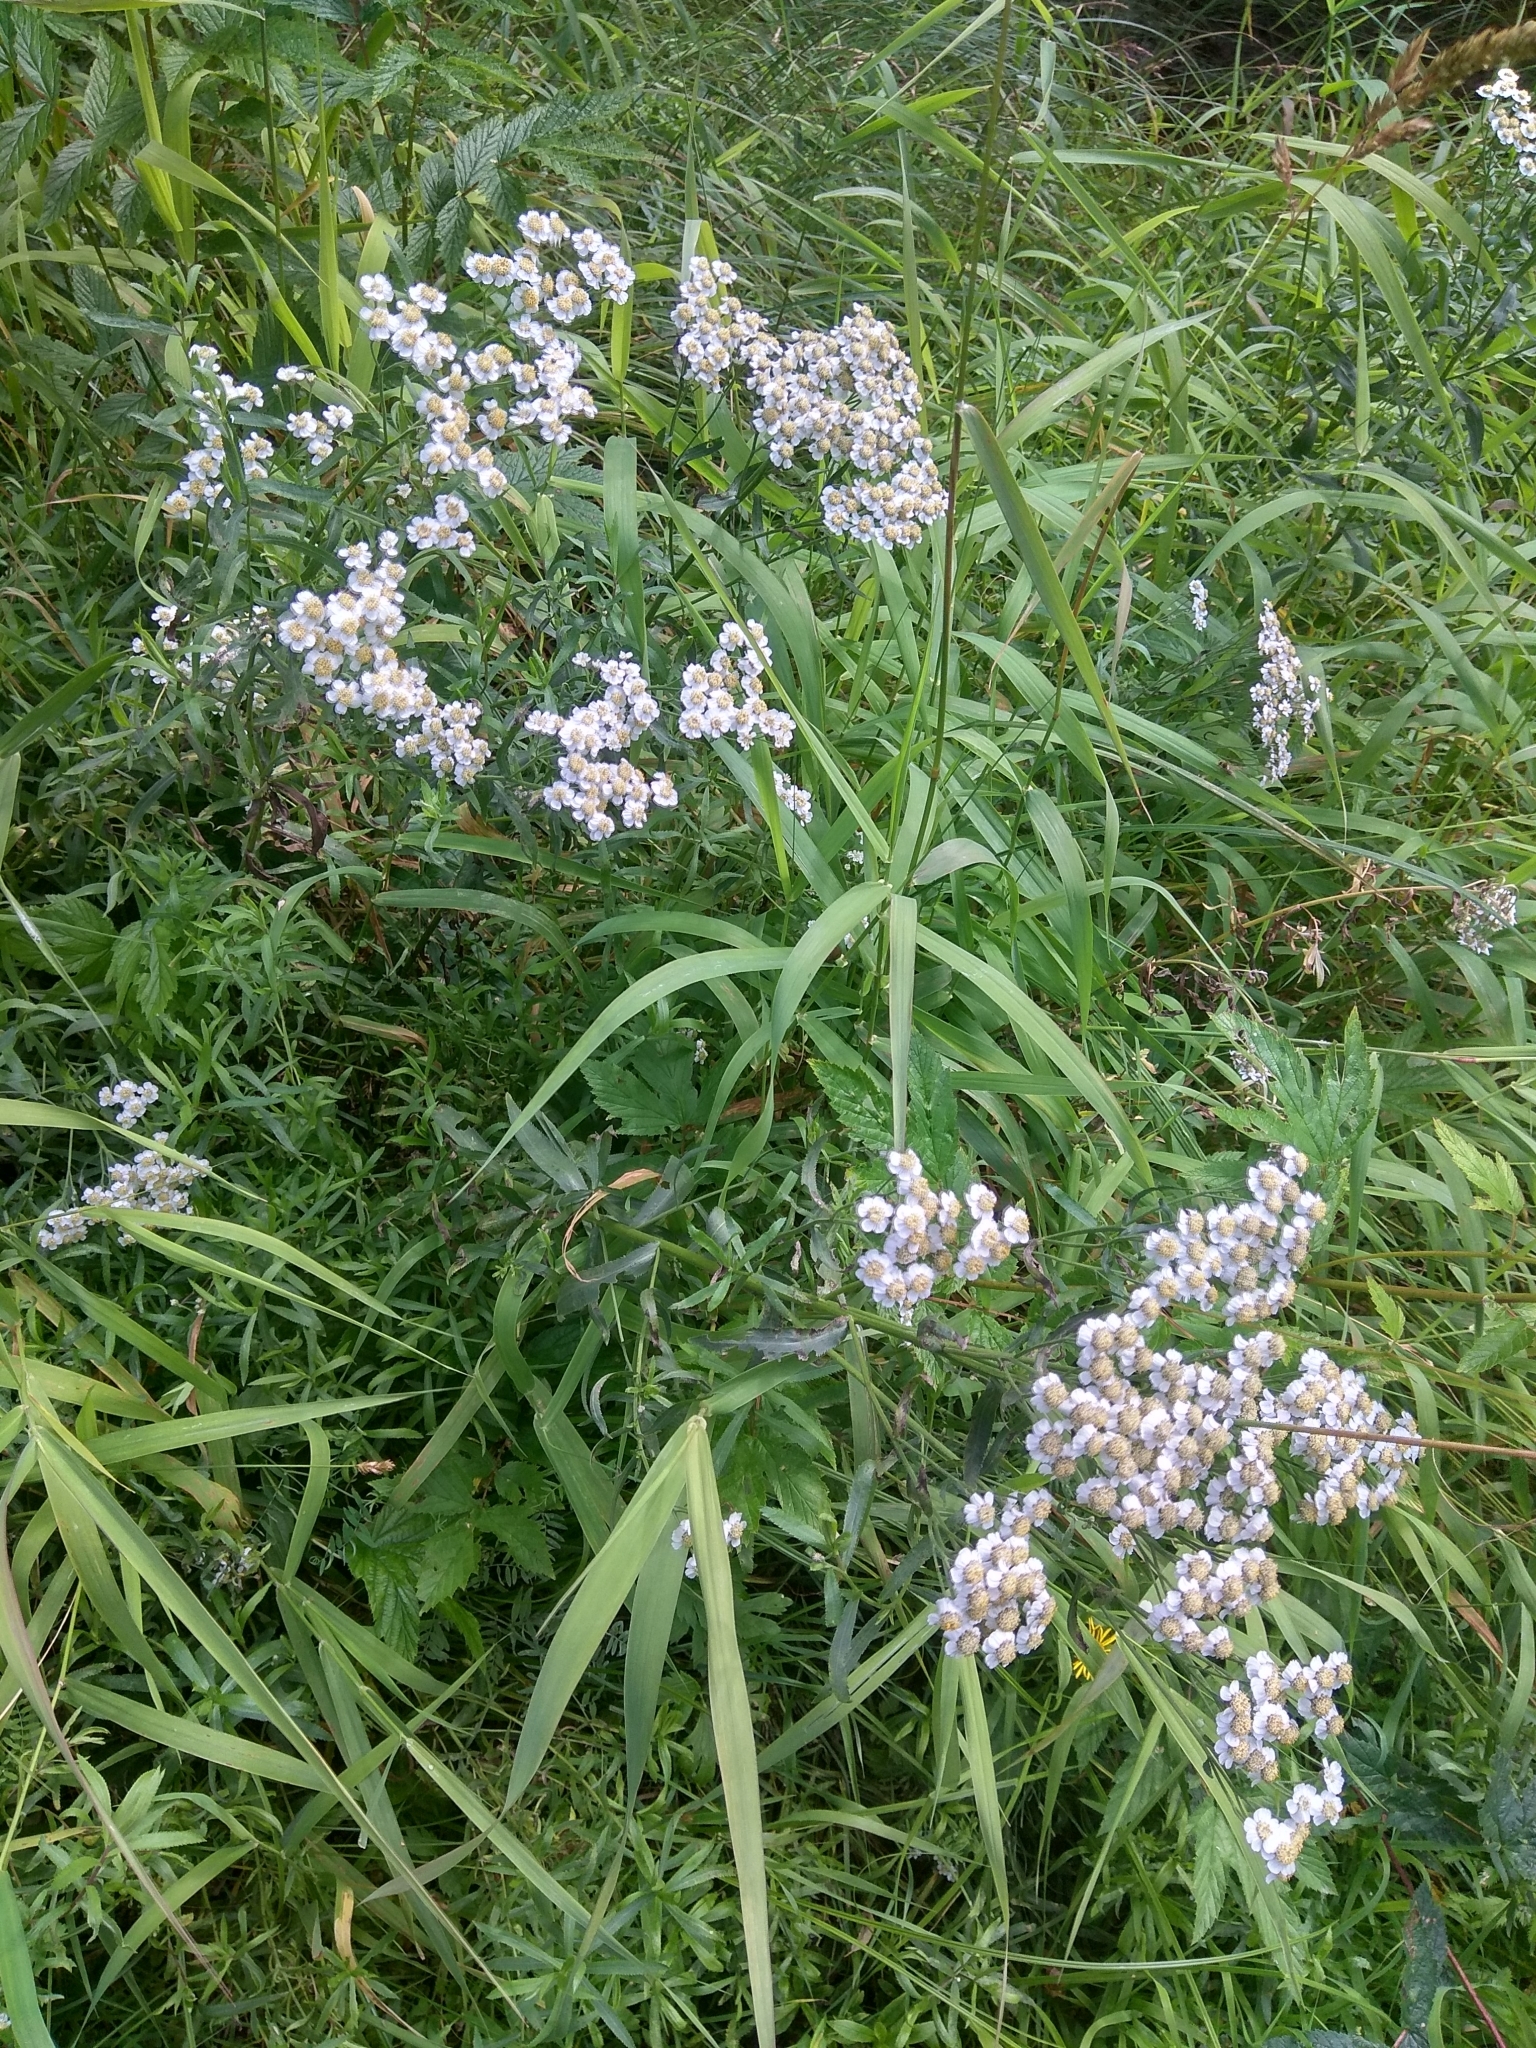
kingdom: Plantae
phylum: Tracheophyta
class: Magnoliopsida
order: Asterales
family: Asteraceae
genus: Achillea
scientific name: Achillea salicifolia
